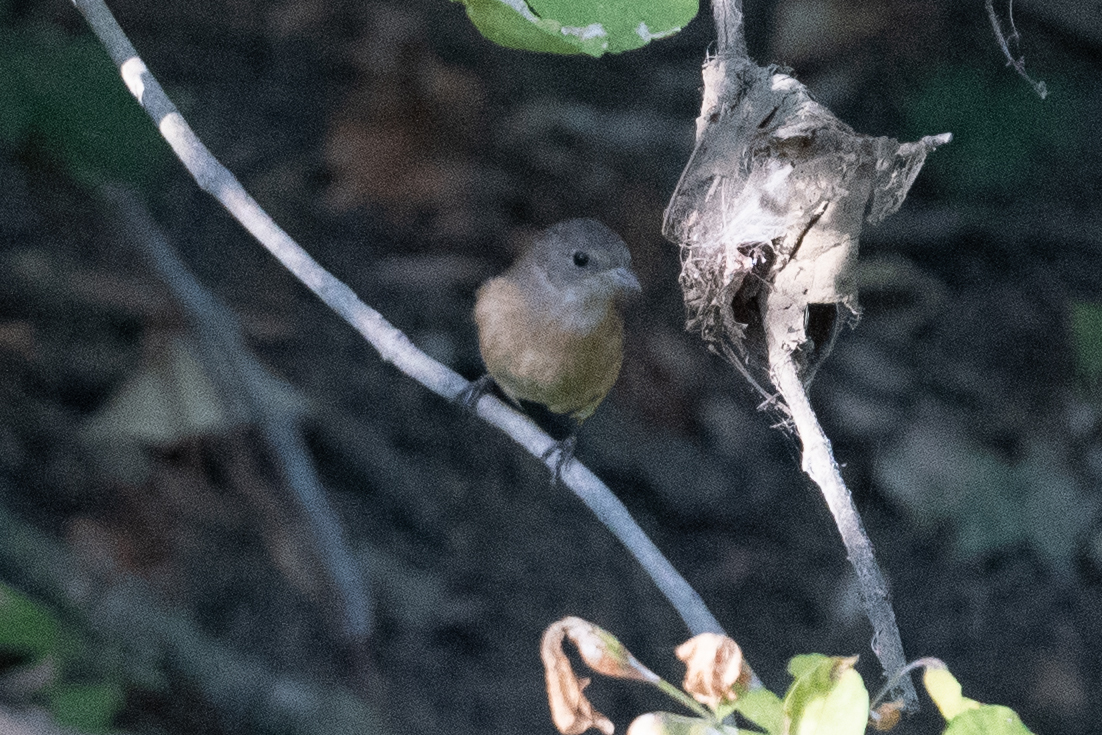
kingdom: Animalia
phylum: Chordata
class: Aves
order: Passeriformes
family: Cardinalidae
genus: Passerina
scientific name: Passerina amoena
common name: Lazuli bunting
